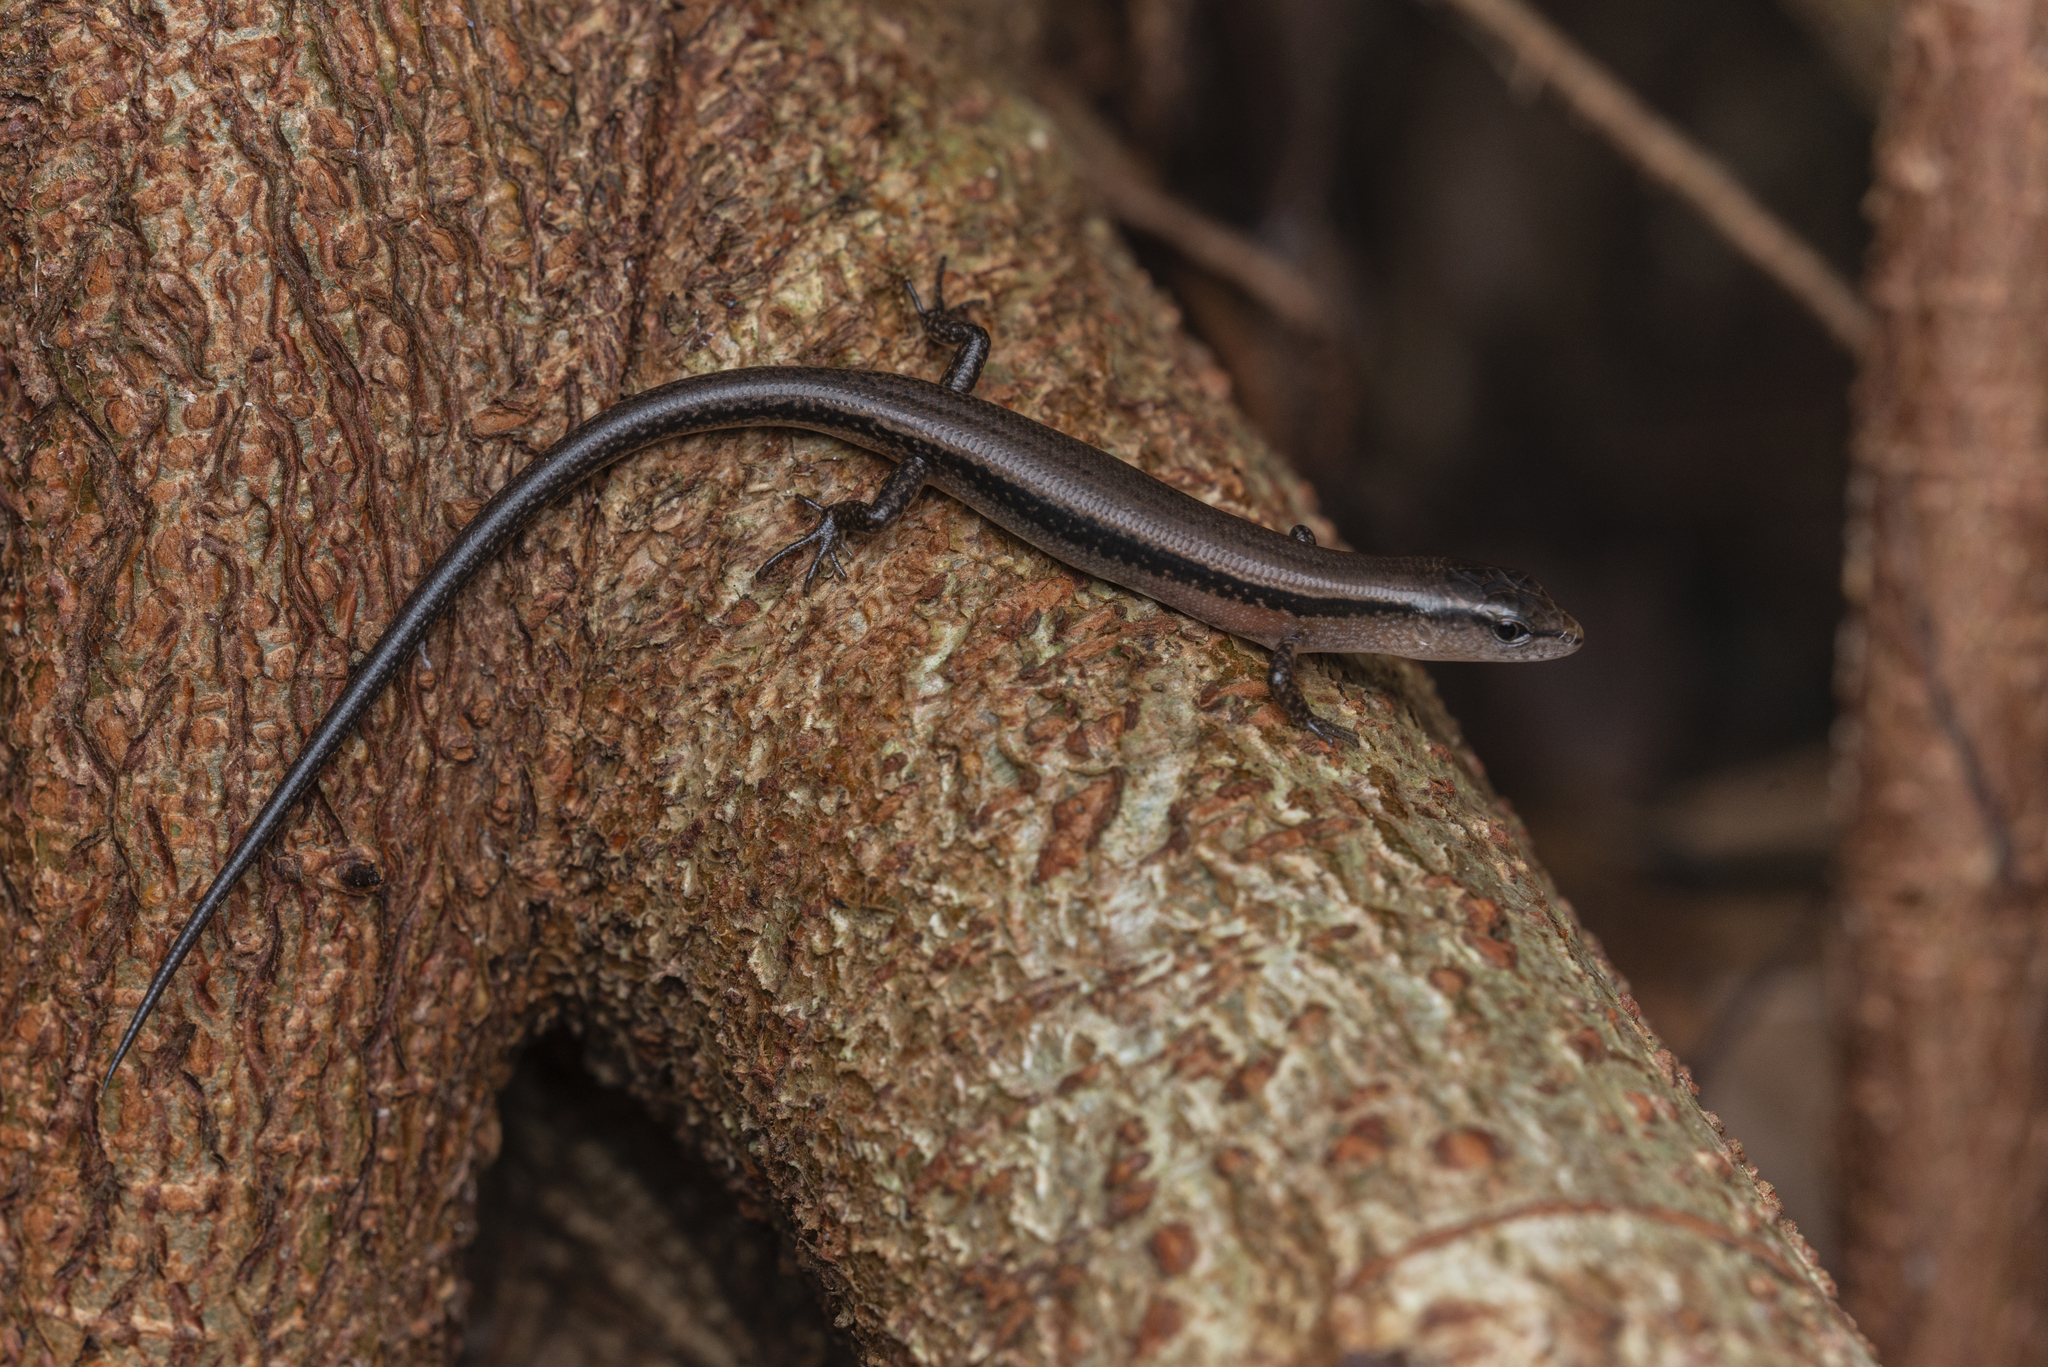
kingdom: Animalia
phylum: Chordata
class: Squamata
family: Scincidae
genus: Scincella
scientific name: Scincella reevesii
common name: Reeves’ smooth gecko
